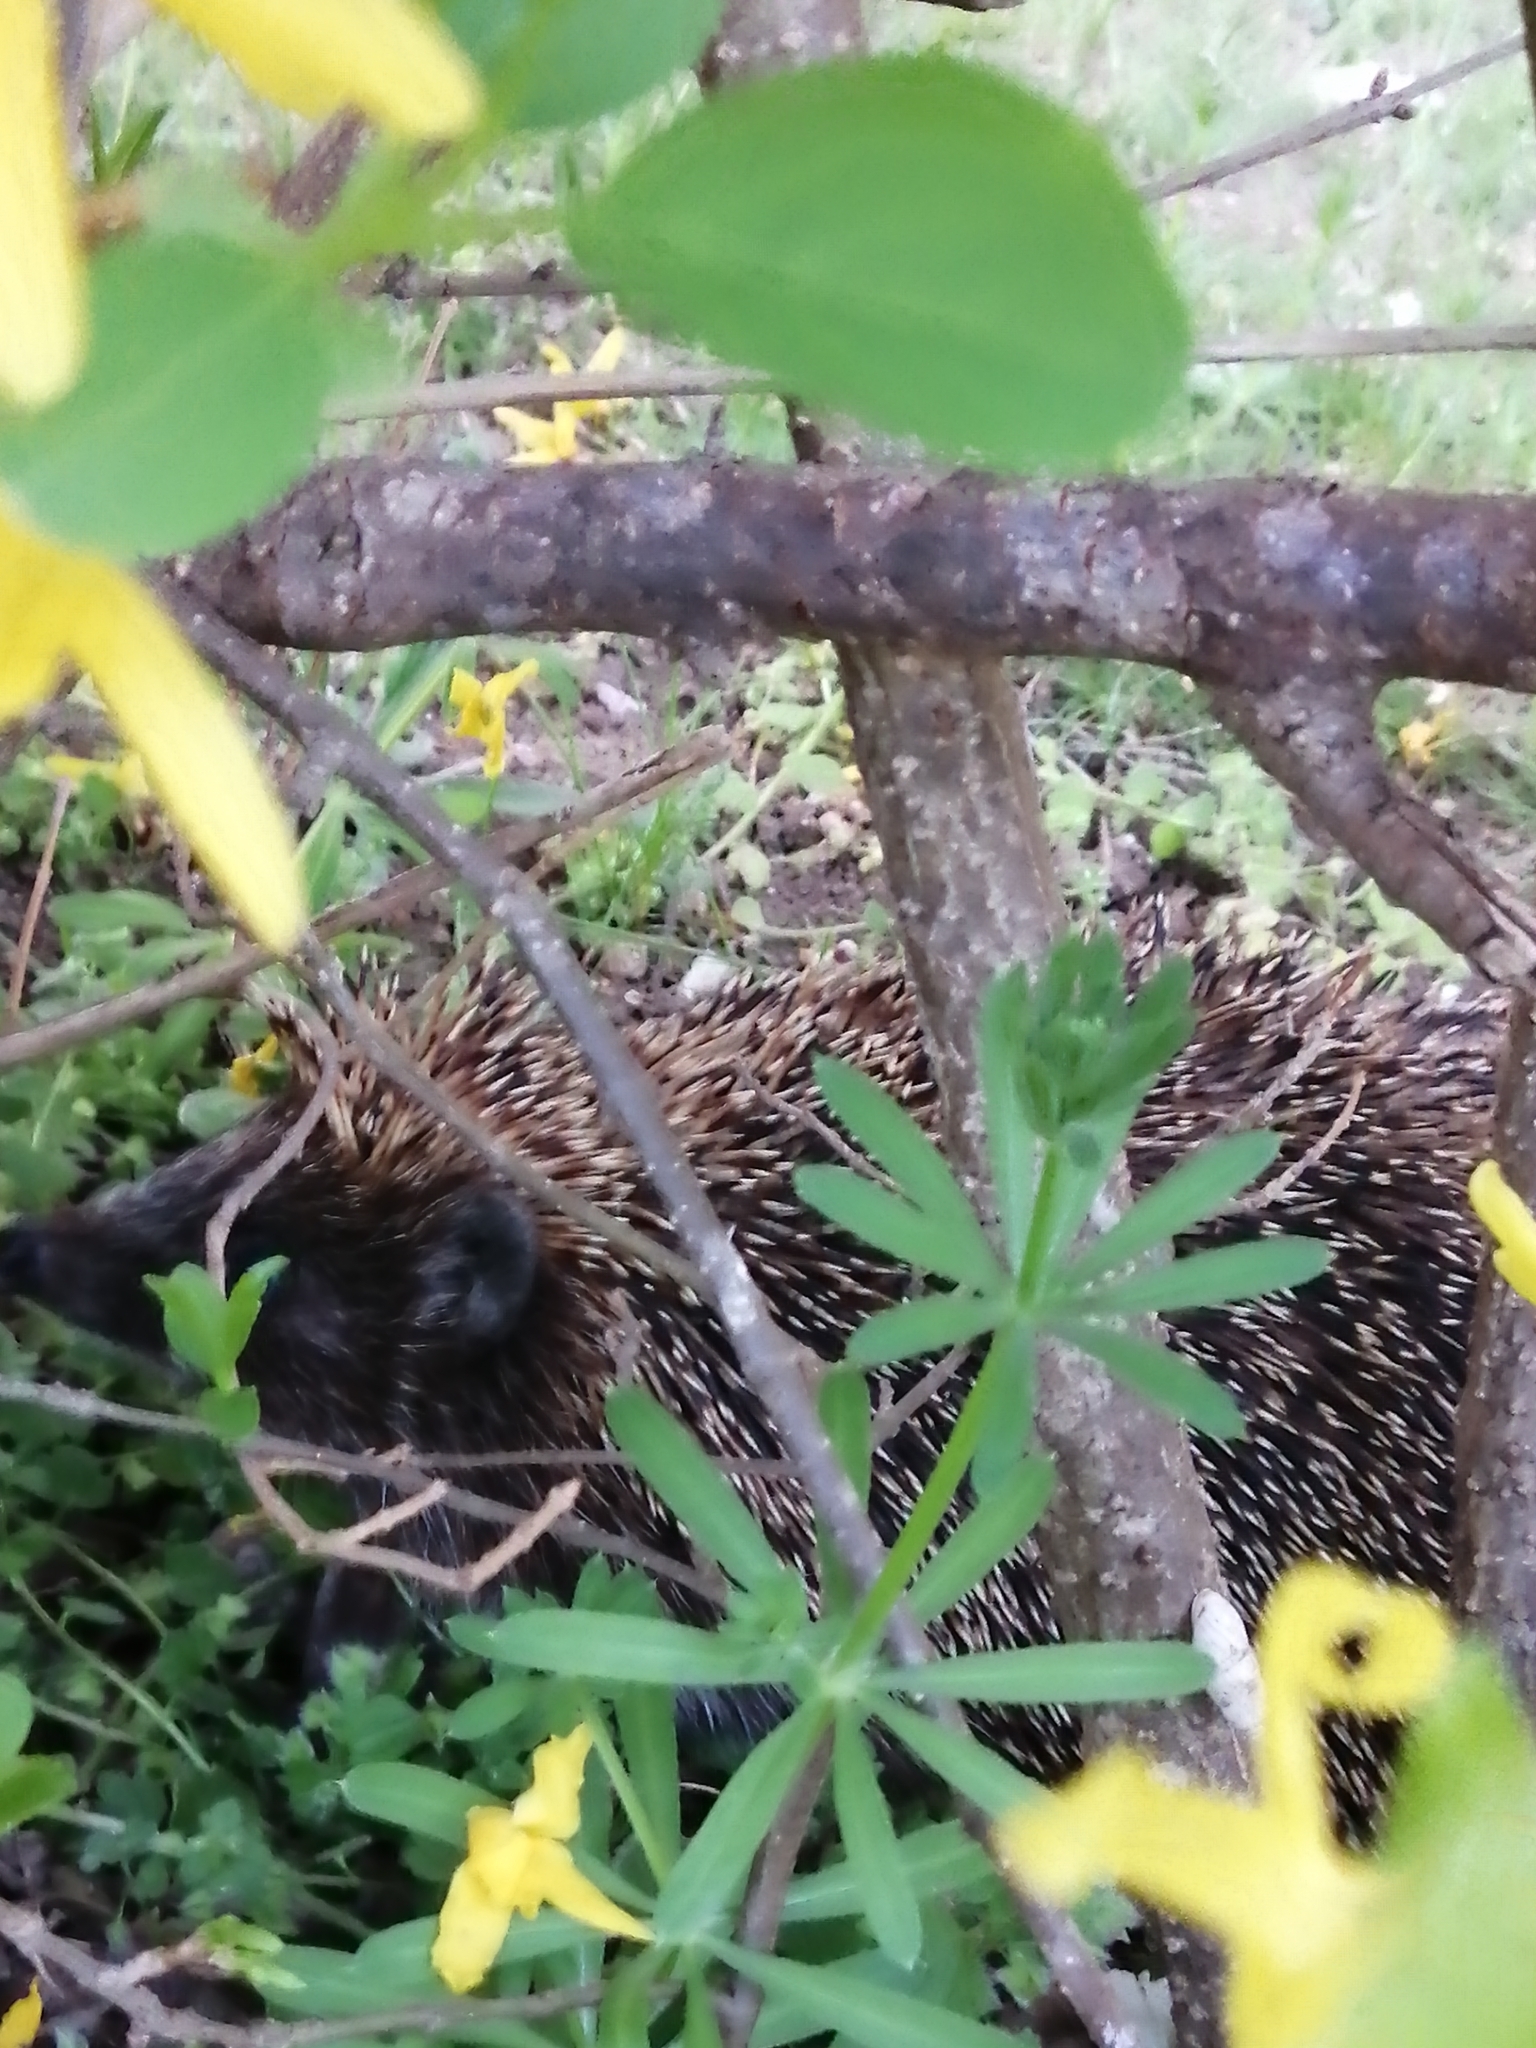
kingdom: Animalia
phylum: Chordata
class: Mammalia
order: Erinaceomorpha
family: Erinaceidae
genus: Erinaceus
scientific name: Erinaceus roumanicus
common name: Northern white-breasted hedgehog
